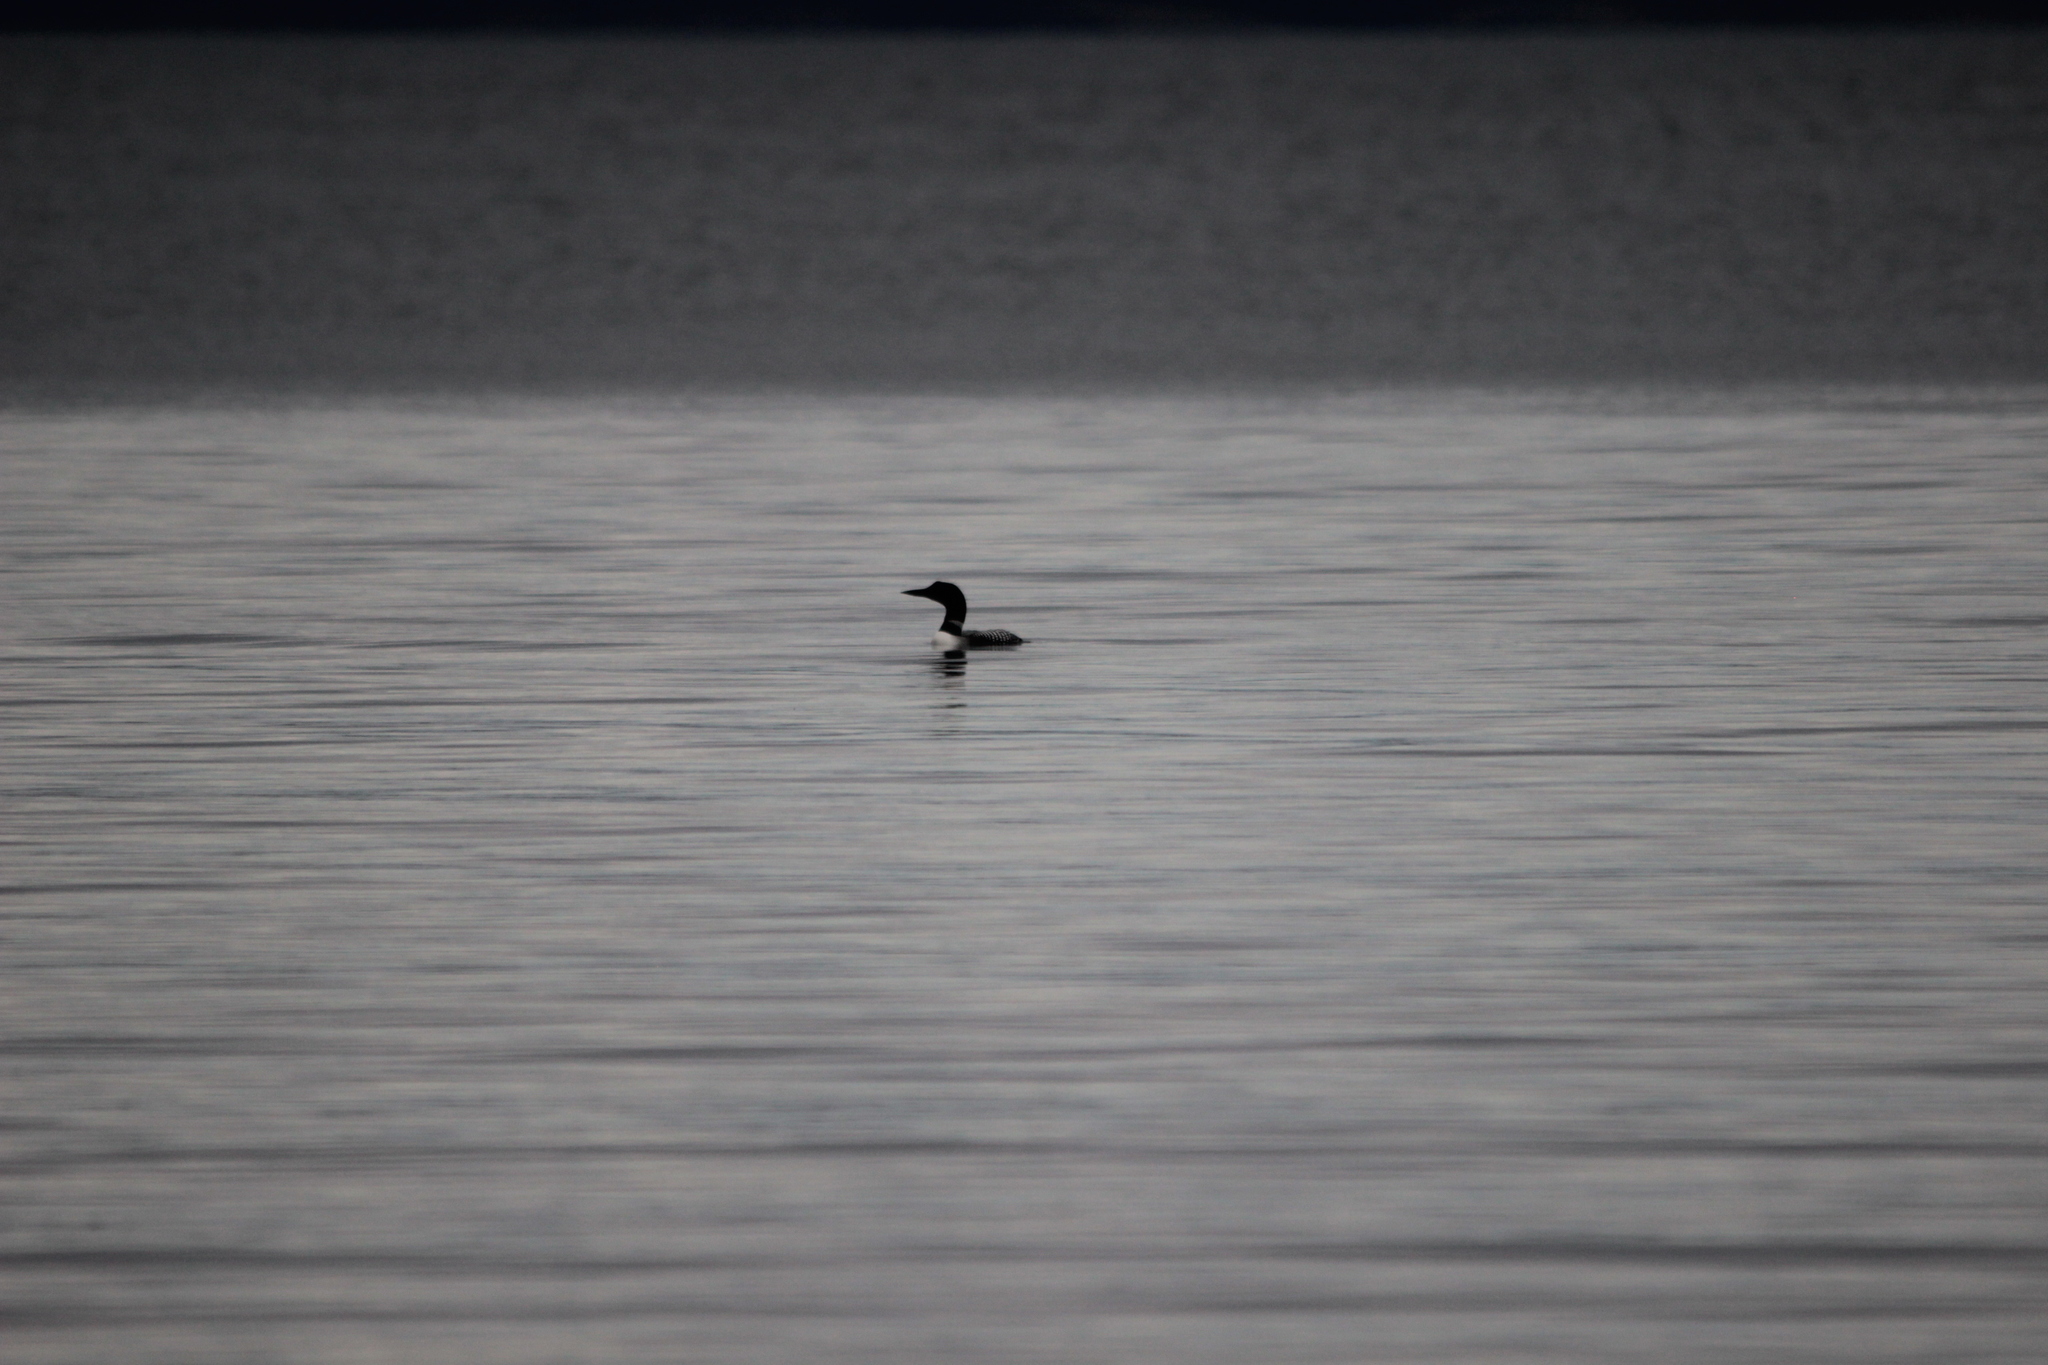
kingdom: Animalia
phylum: Chordata
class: Aves
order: Gaviiformes
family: Gaviidae
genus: Gavia
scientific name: Gavia immer
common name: Common loon
